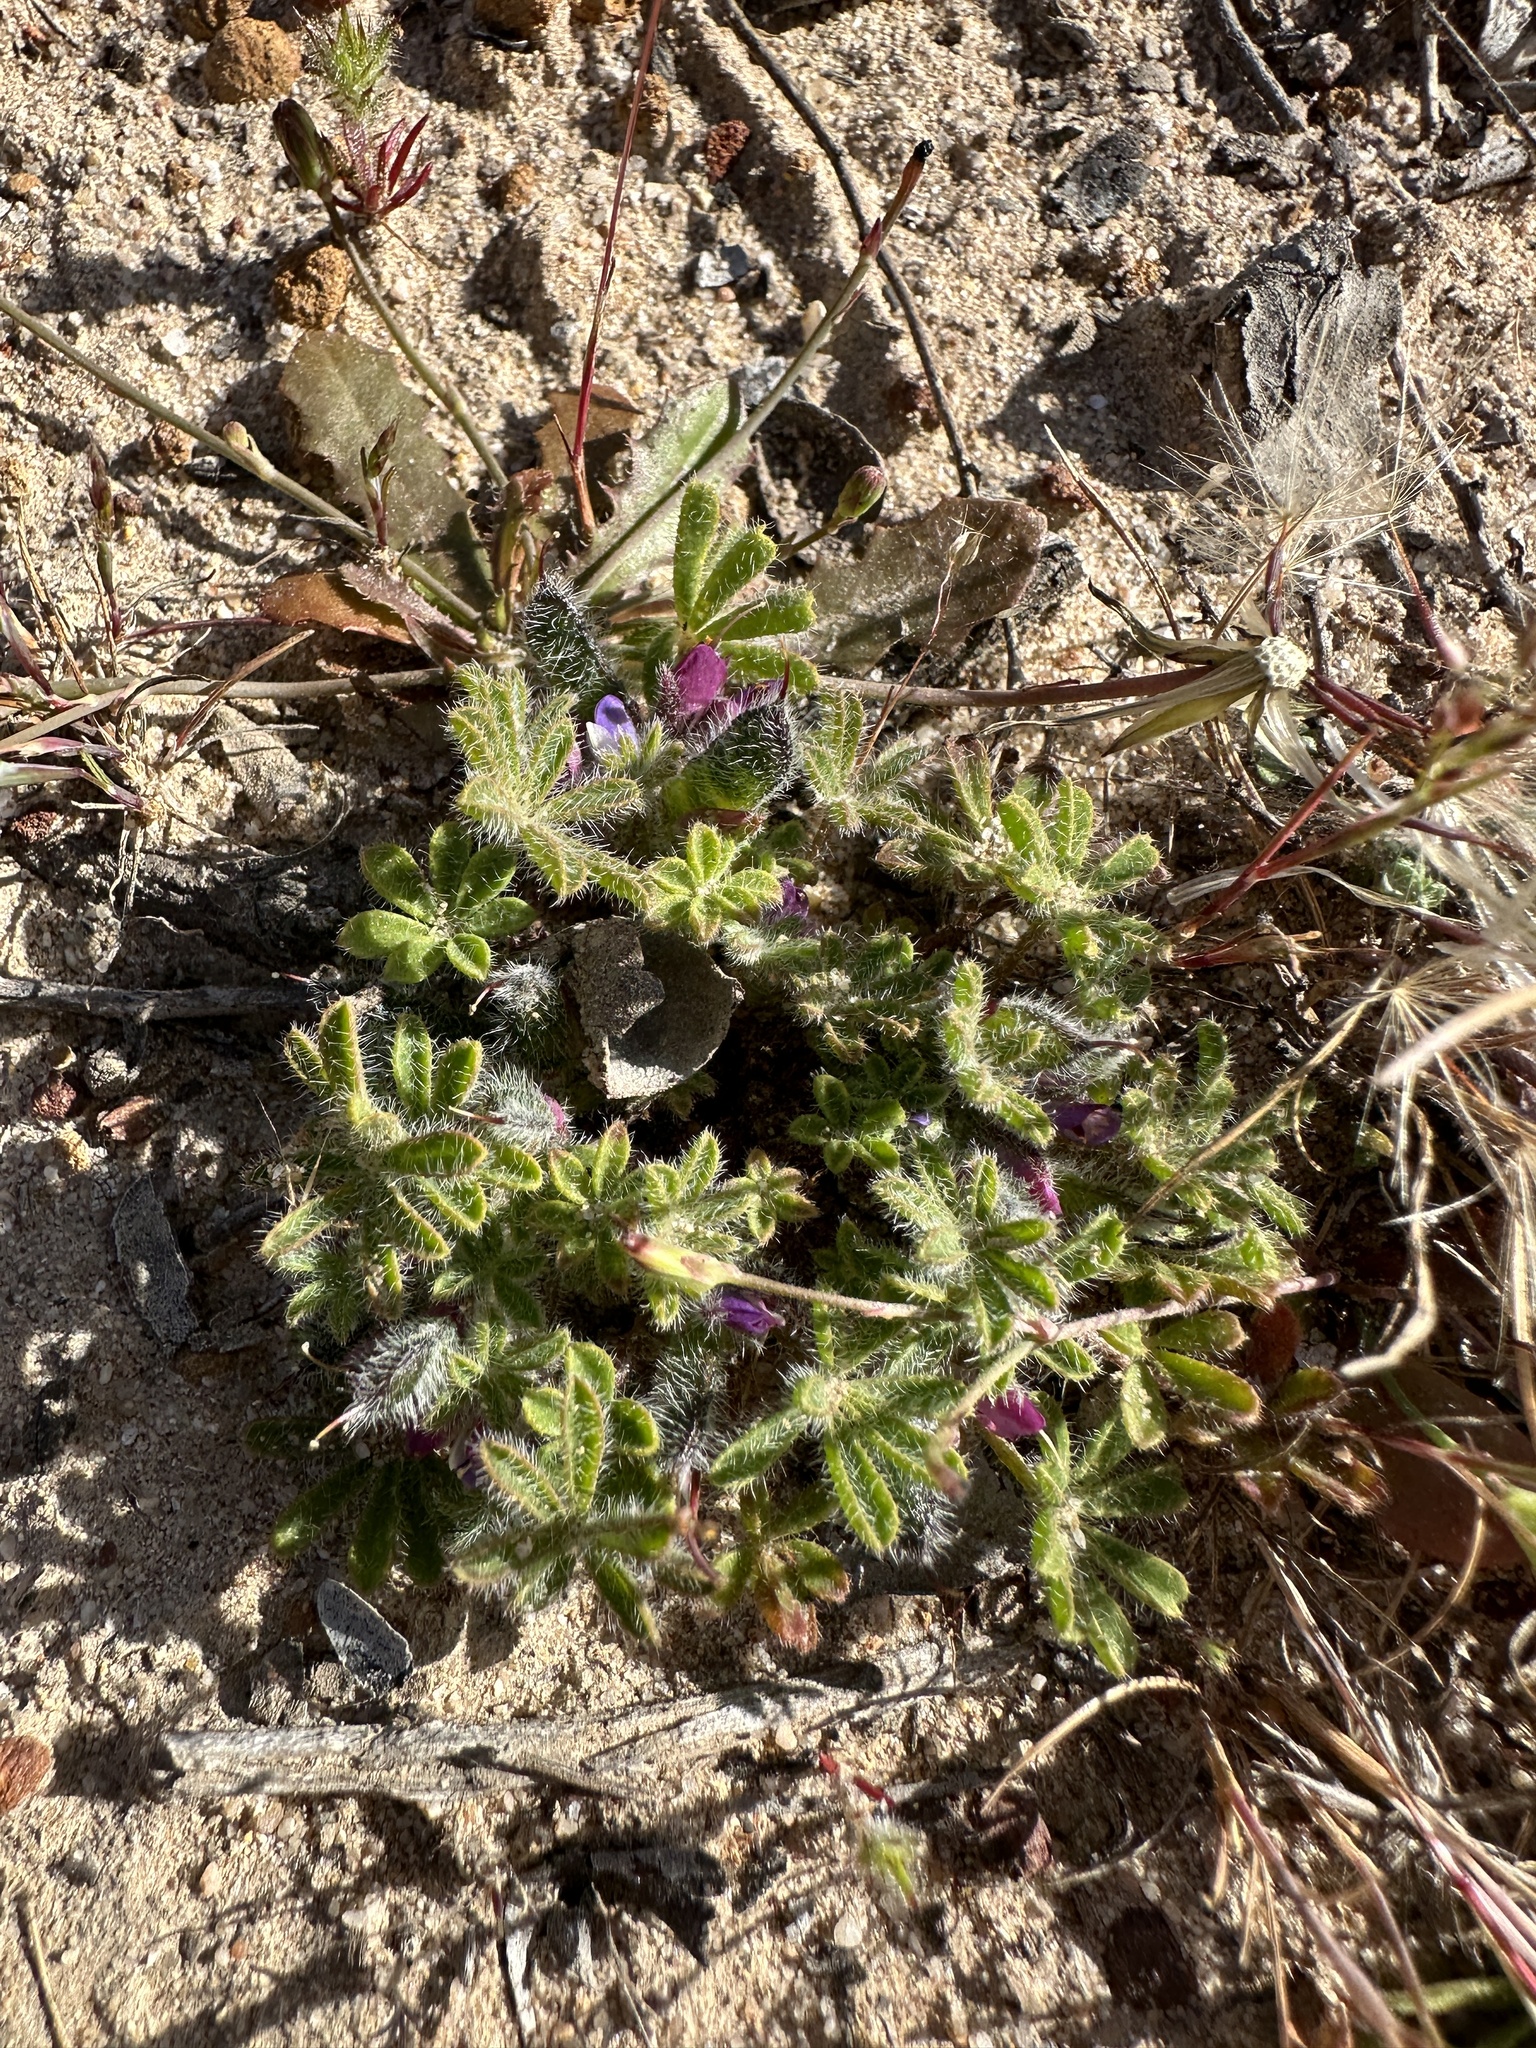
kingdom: Plantae
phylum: Tracheophyta
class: Magnoliopsida
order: Fabales
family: Fabaceae
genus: Lupinus
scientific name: Lupinus concinnus
